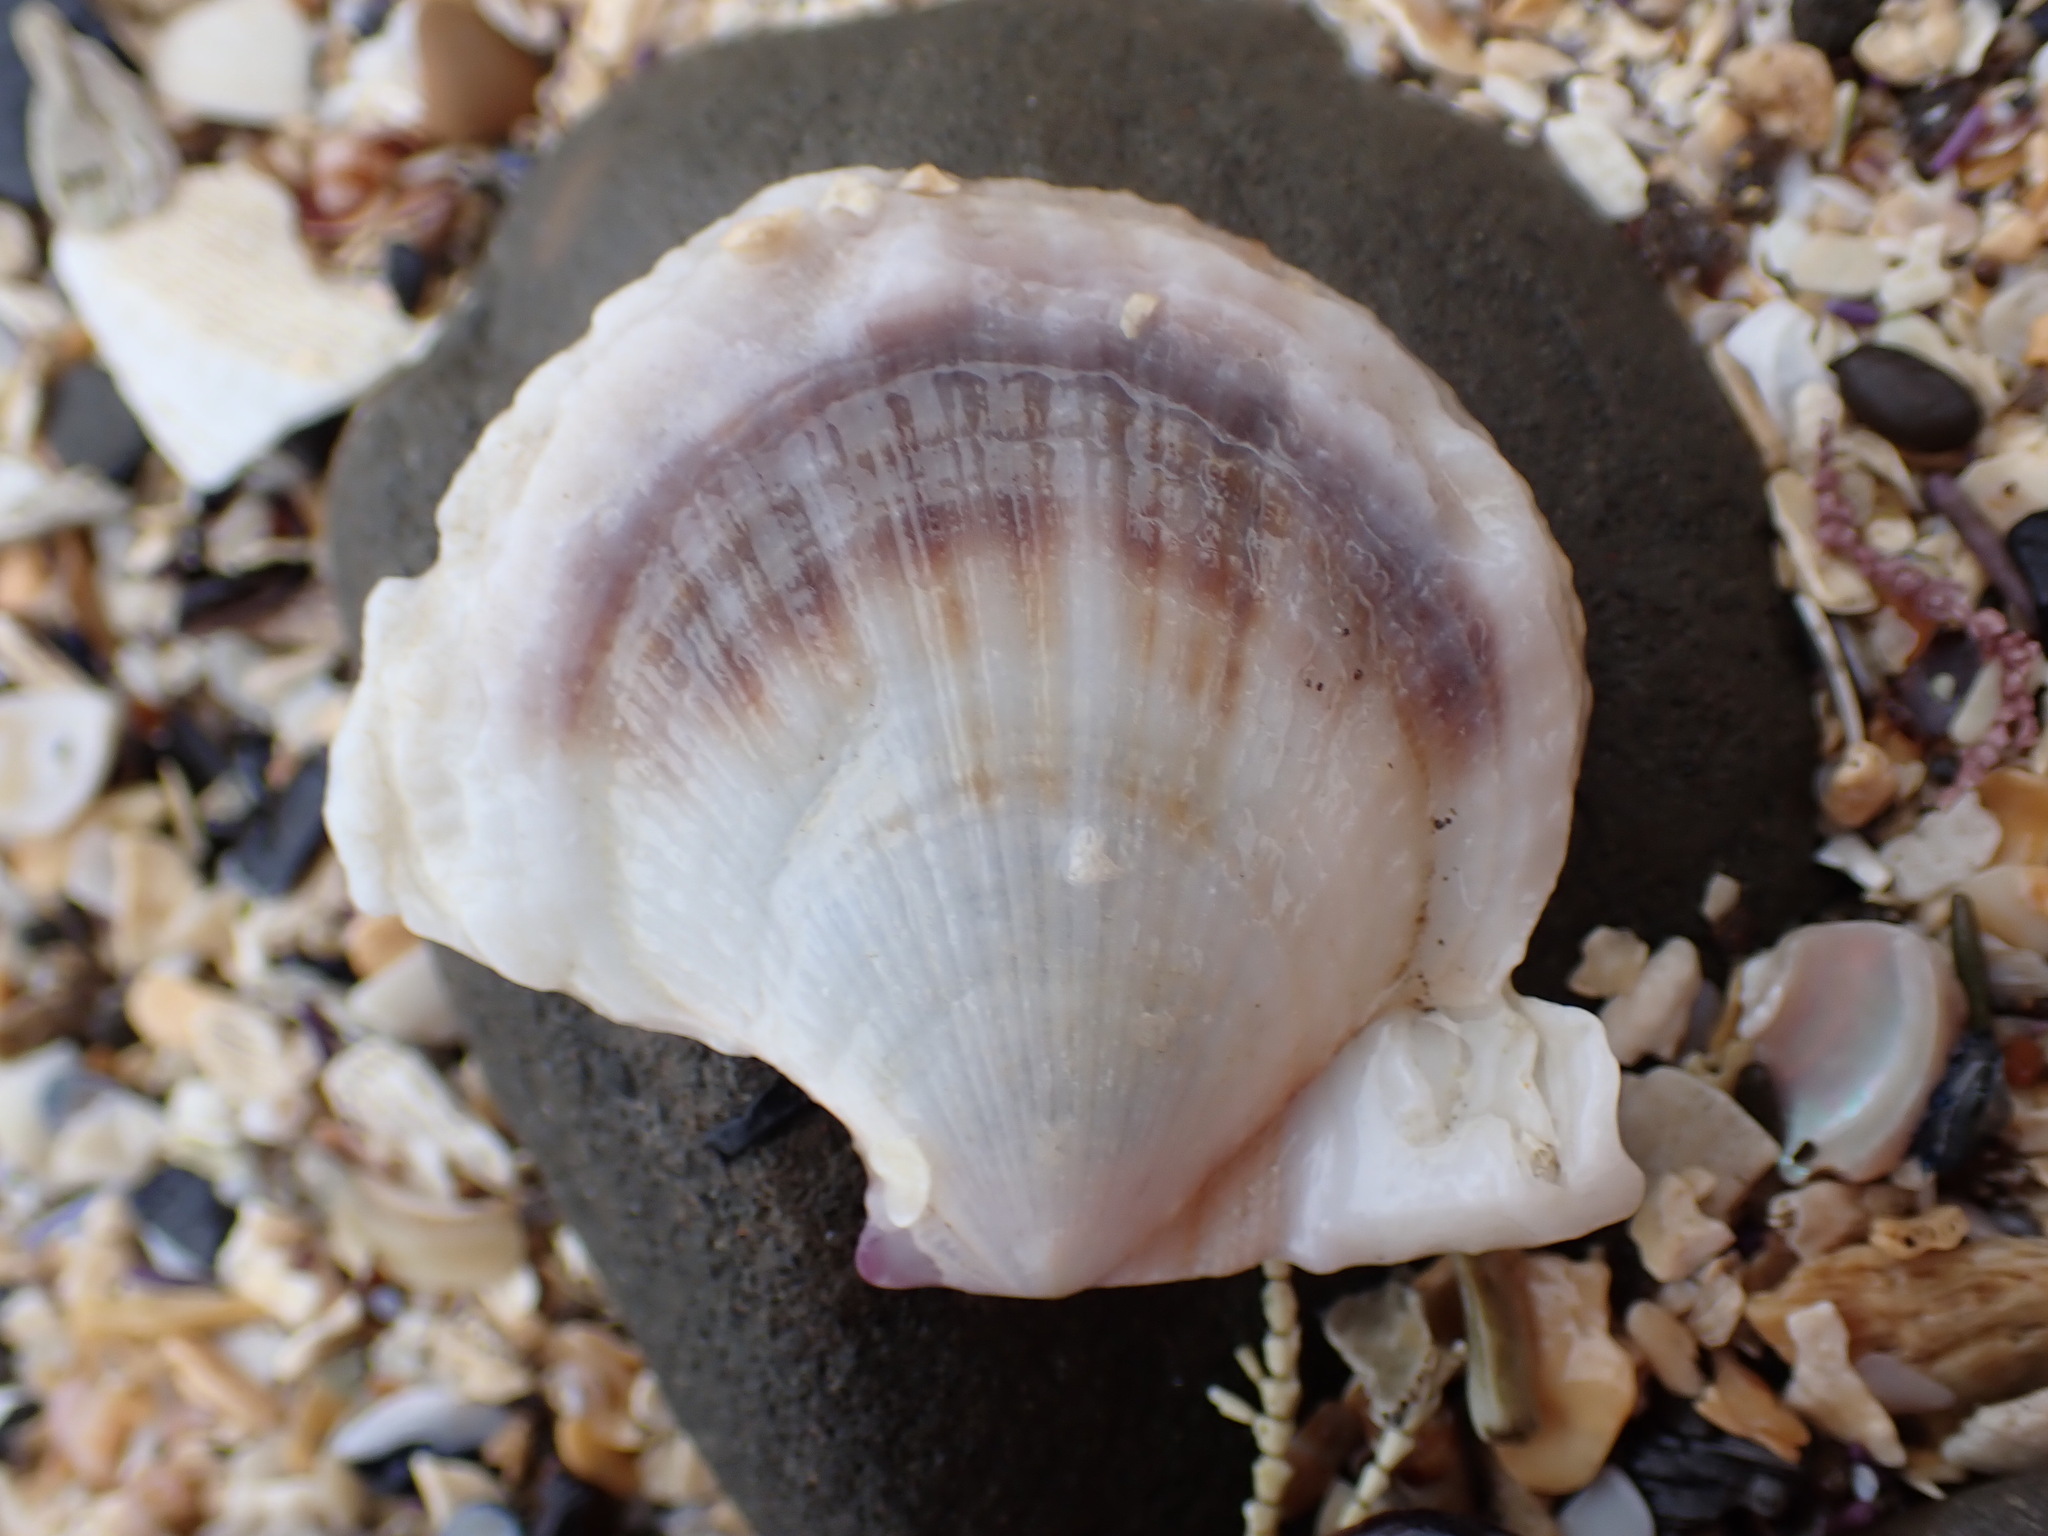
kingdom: Animalia
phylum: Mollusca
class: Bivalvia
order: Pectinida
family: Pectinidae
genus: Crassadoma
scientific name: Crassadoma gigantea
